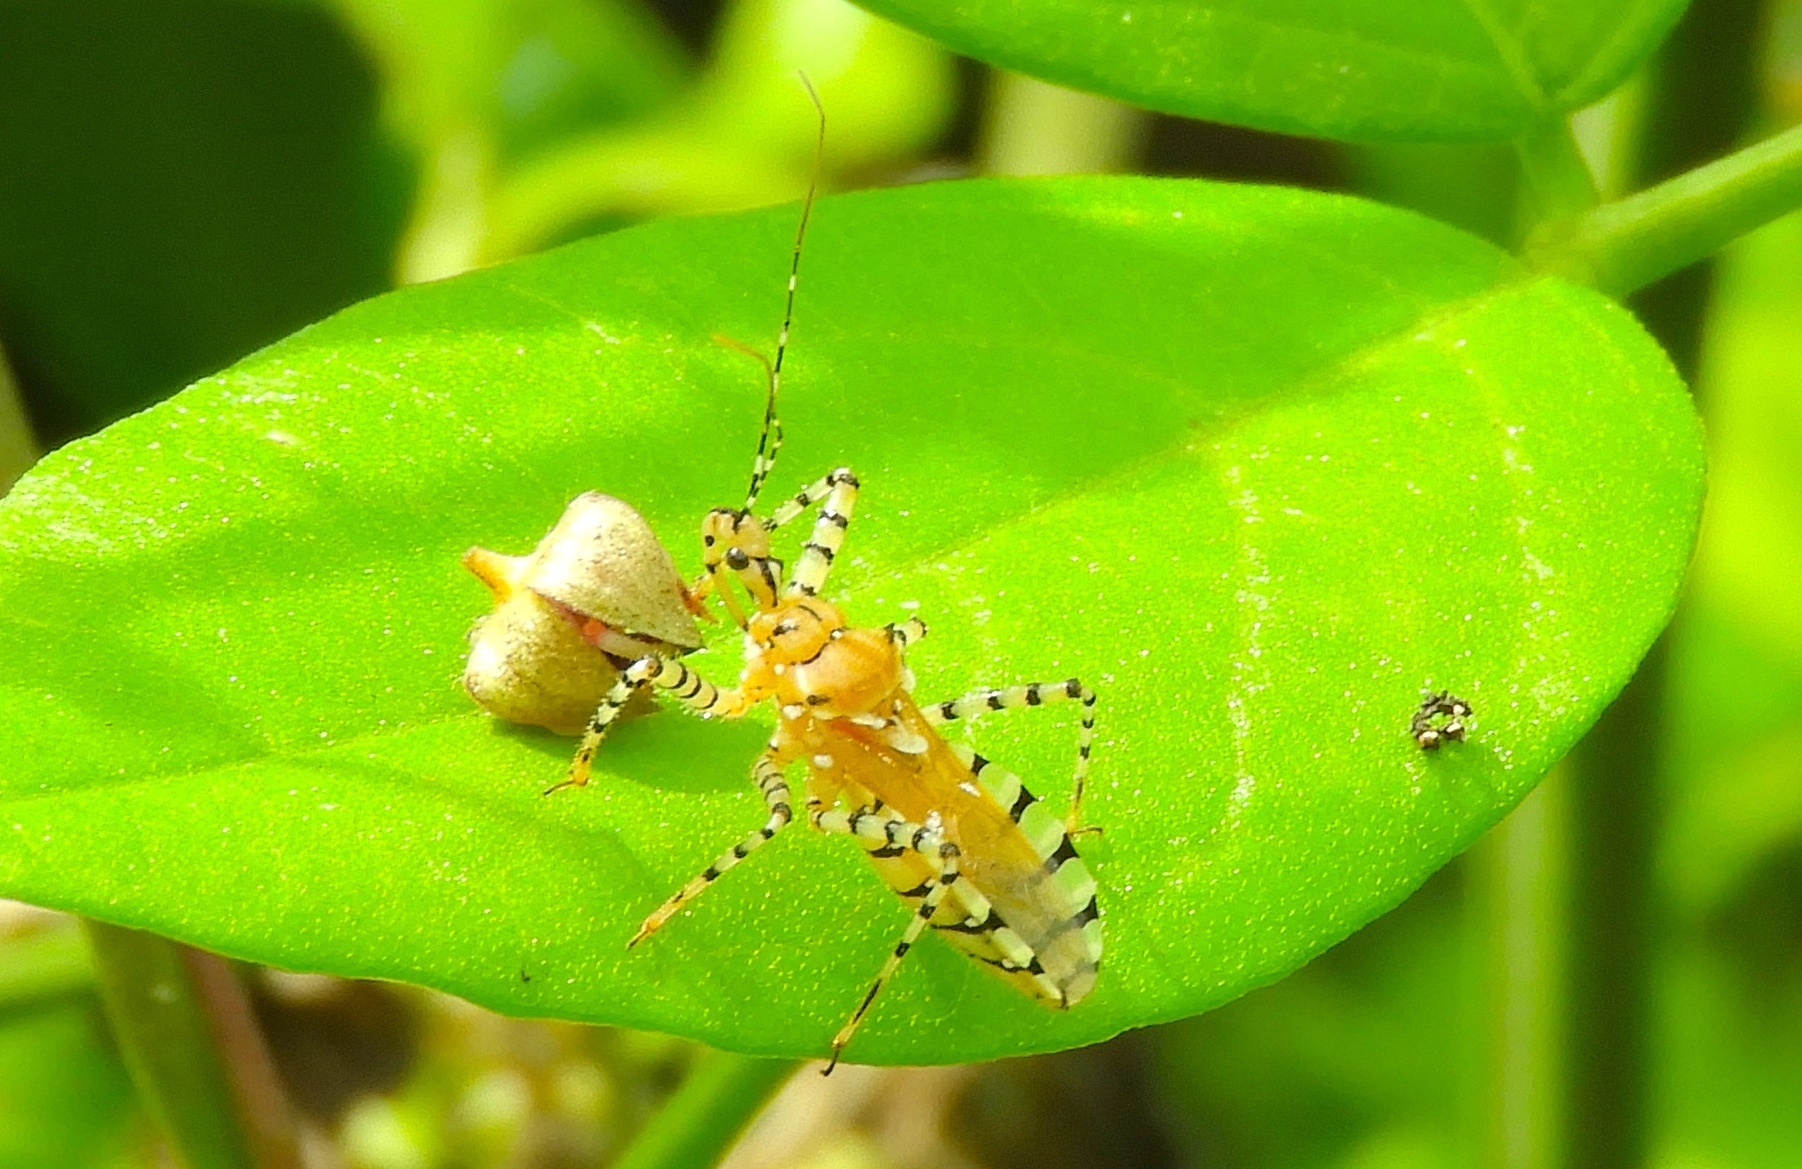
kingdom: Animalia
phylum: Arthropoda
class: Insecta
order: Hemiptera
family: Reduviidae
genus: Pselliopus
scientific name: Pselliopus
